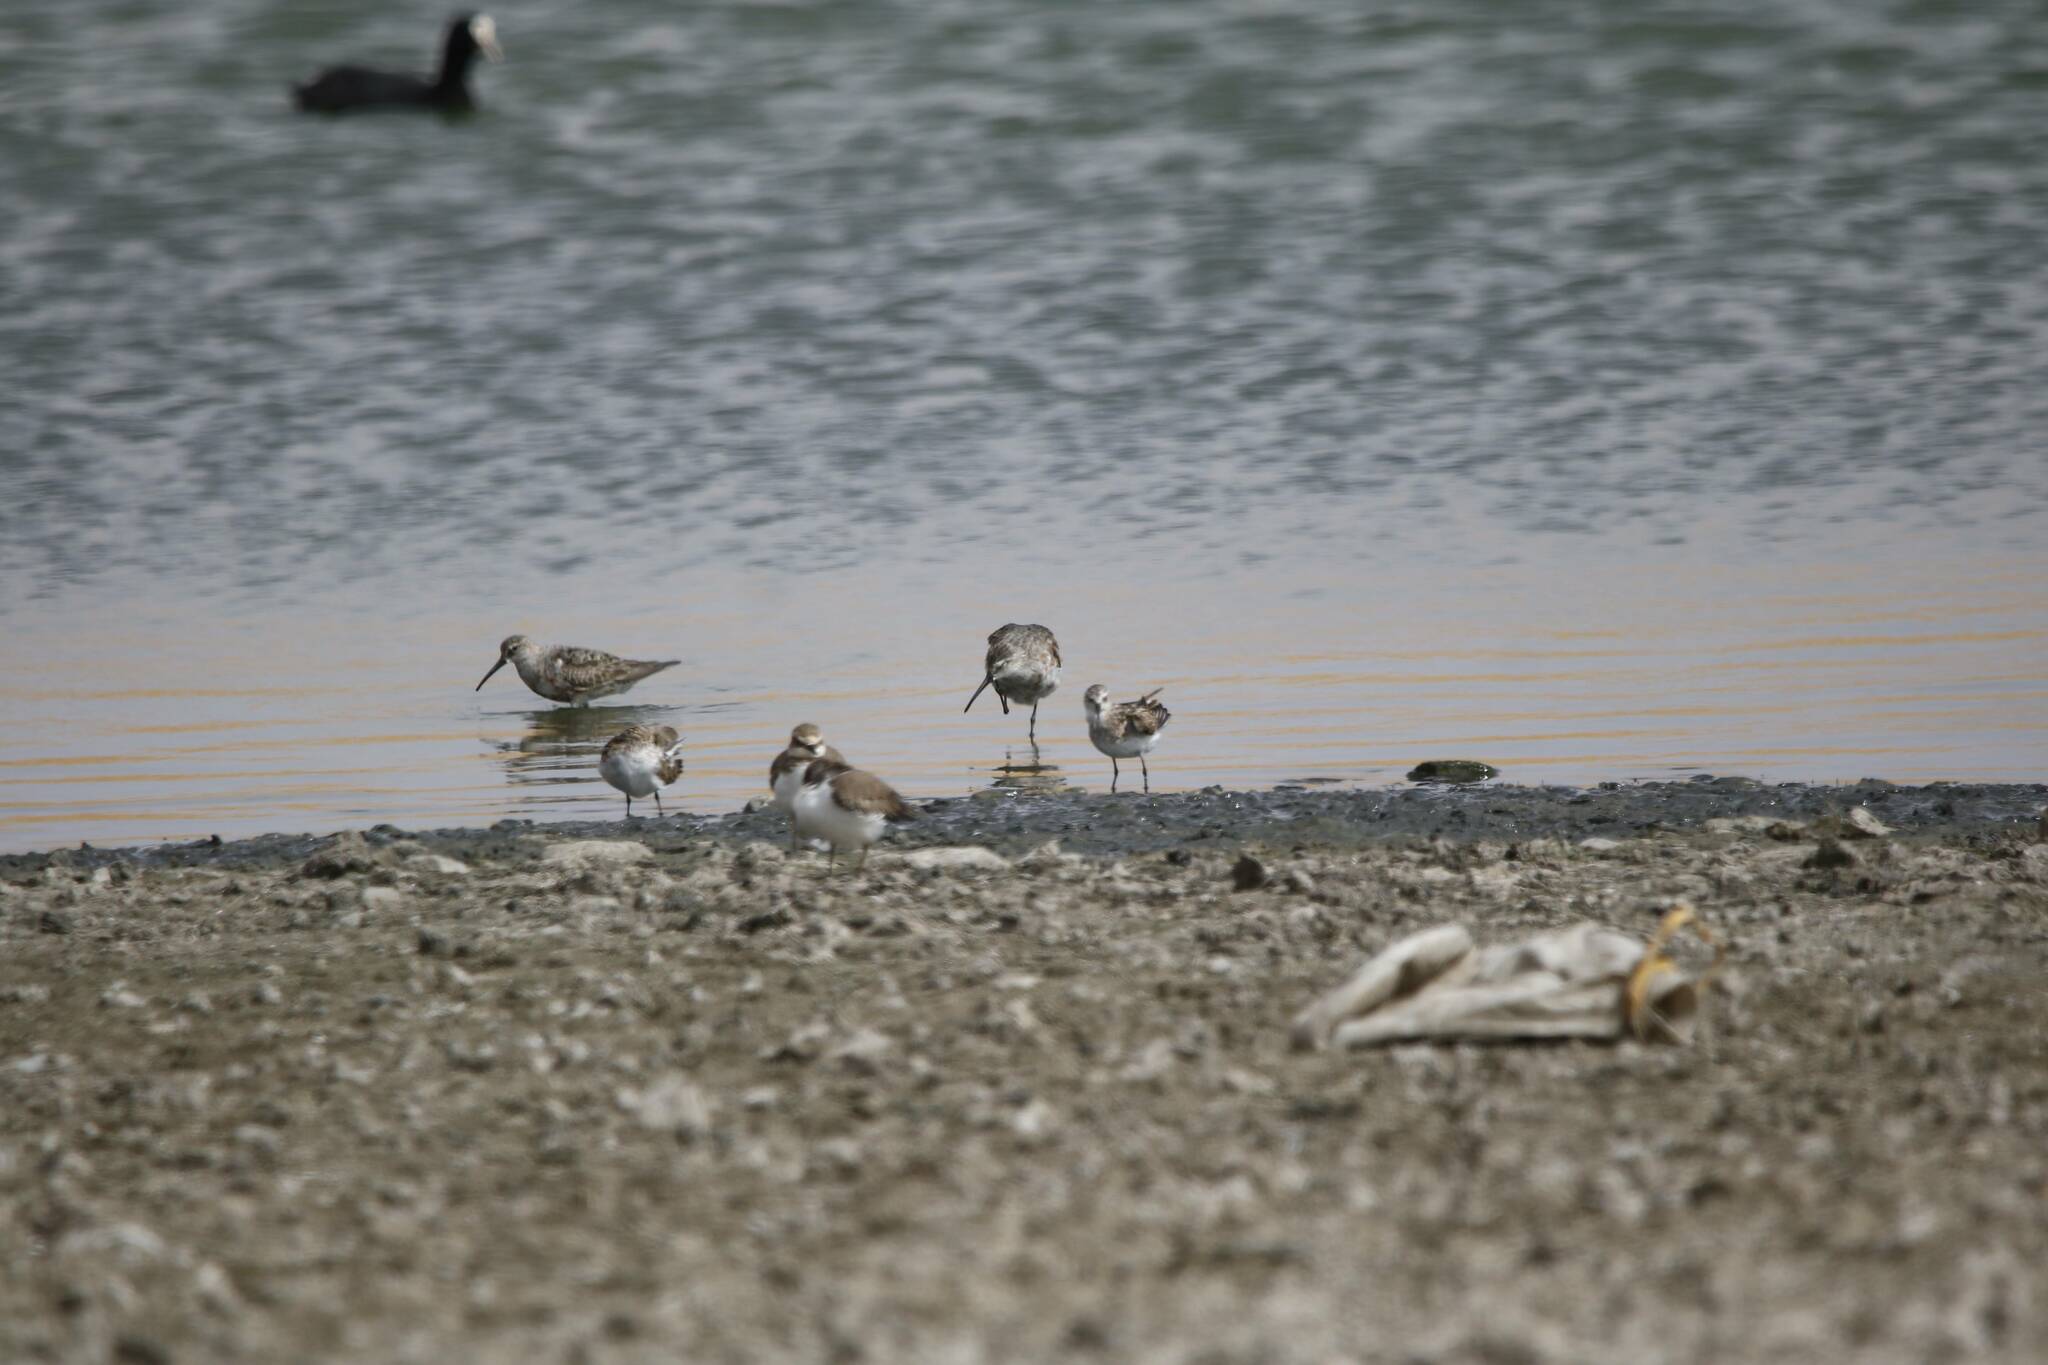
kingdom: Animalia
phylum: Chordata
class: Aves
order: Charadriiformes
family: Scolopacidae
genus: Calidris
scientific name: Calidris ferruginea
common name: Curlew sandpiper
